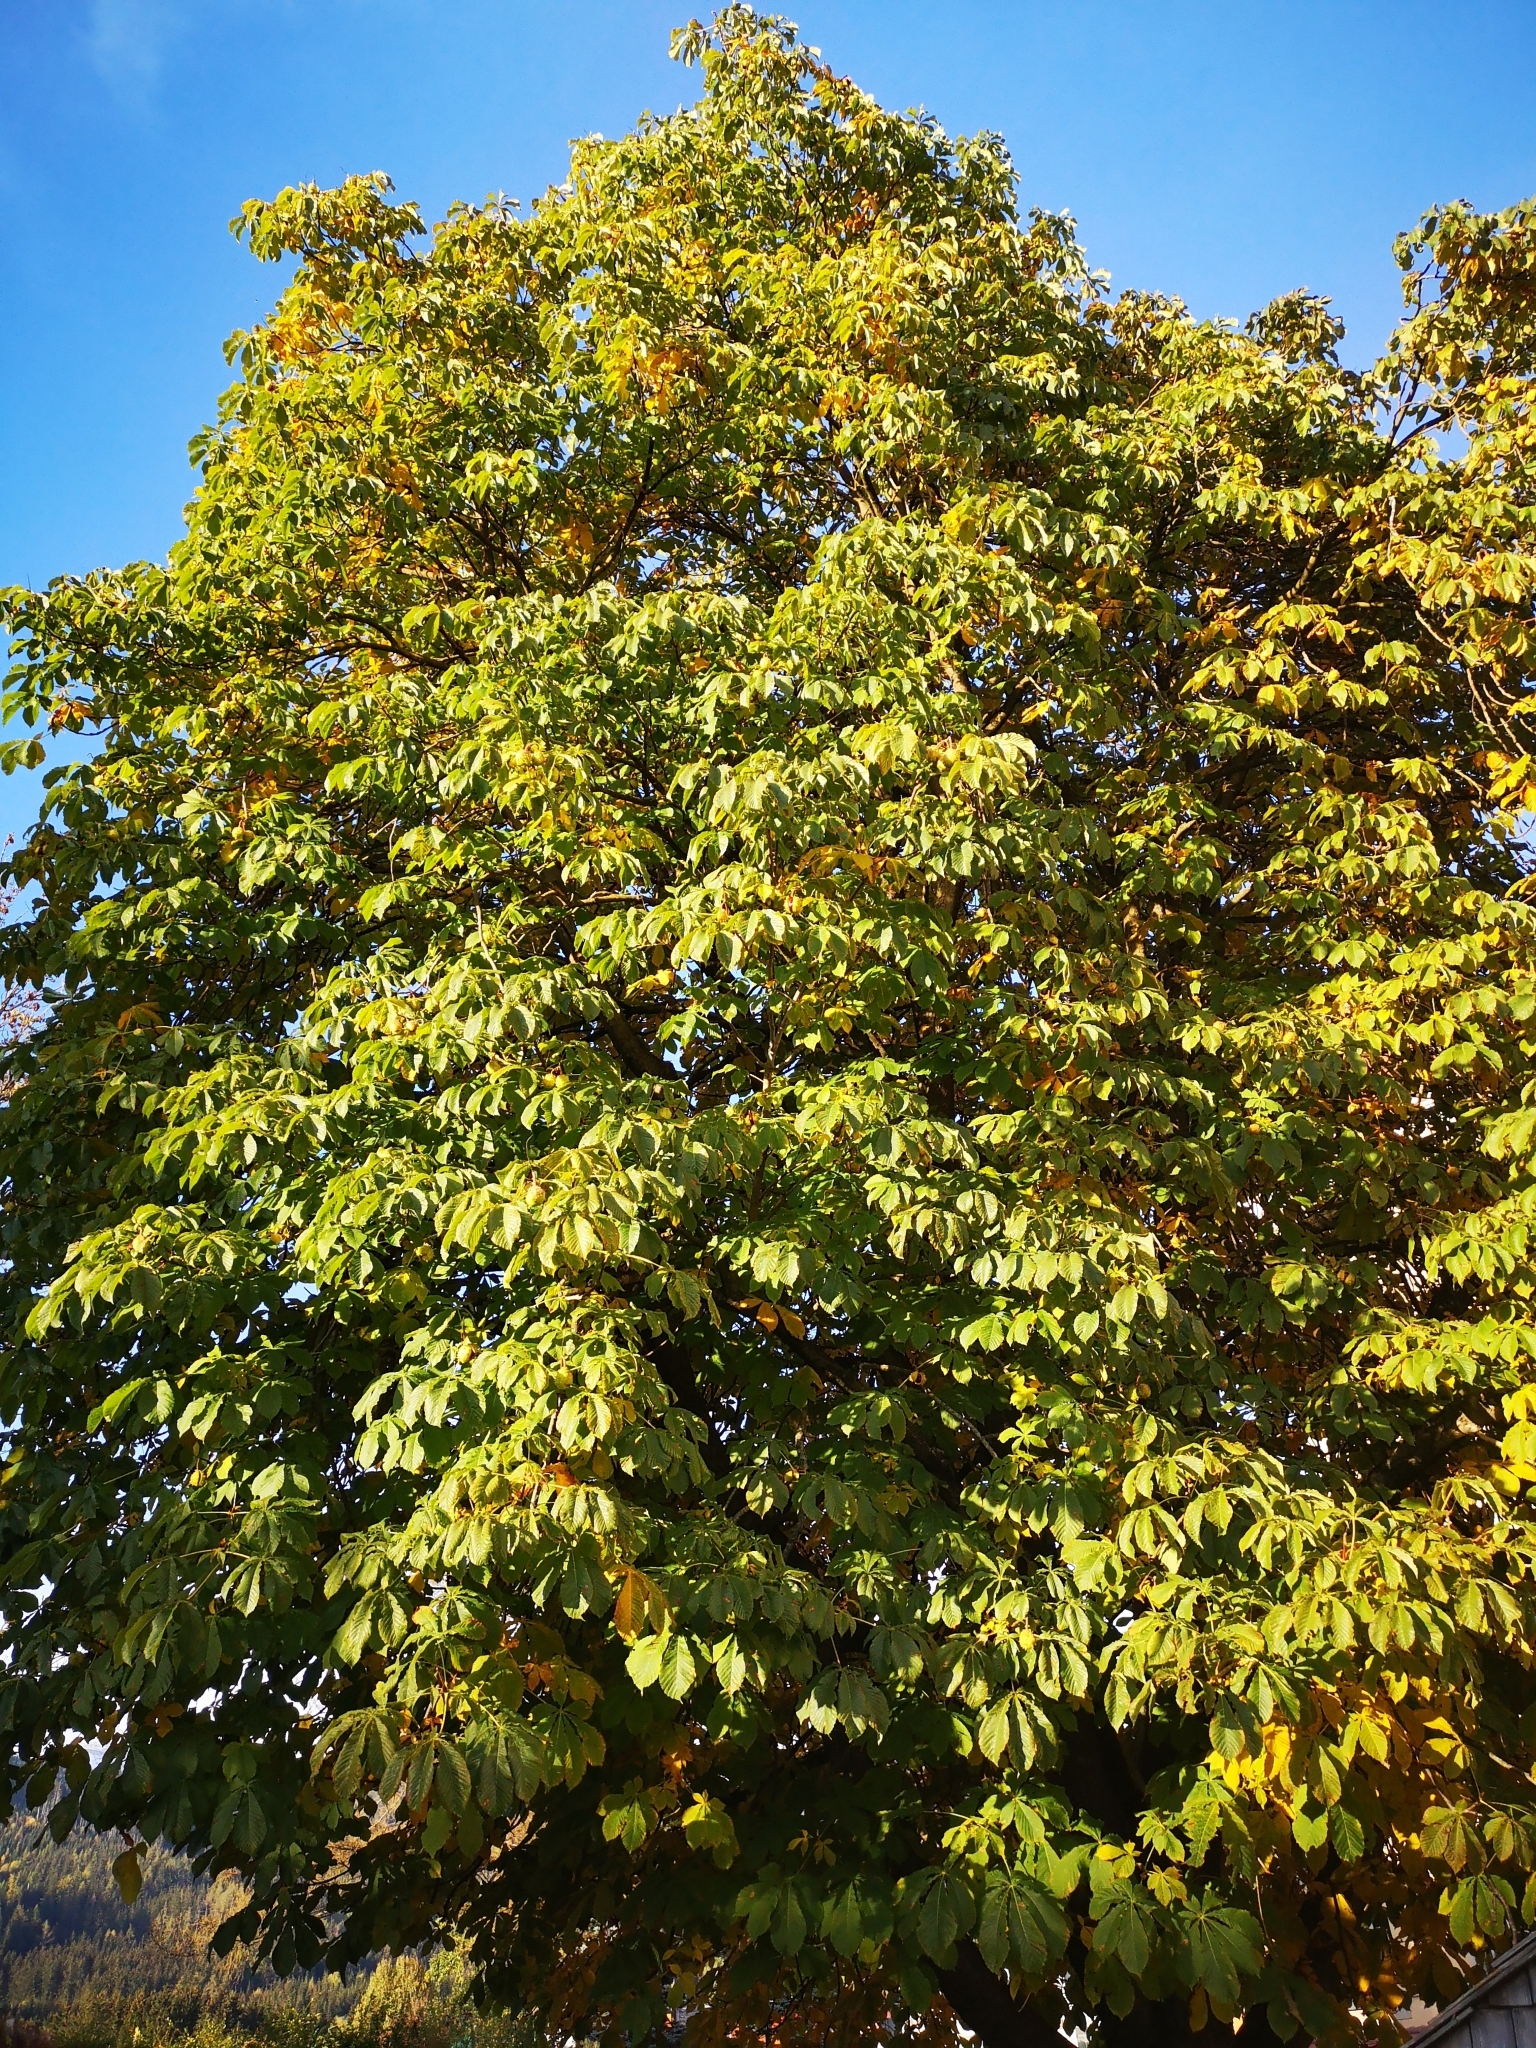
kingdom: Plantae
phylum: Tracheophyta
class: Magnoliopsida
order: Sapindales
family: Sapindaceae
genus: Aesculus
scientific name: Aesculus hippocastanum
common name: Horse-chestnut
